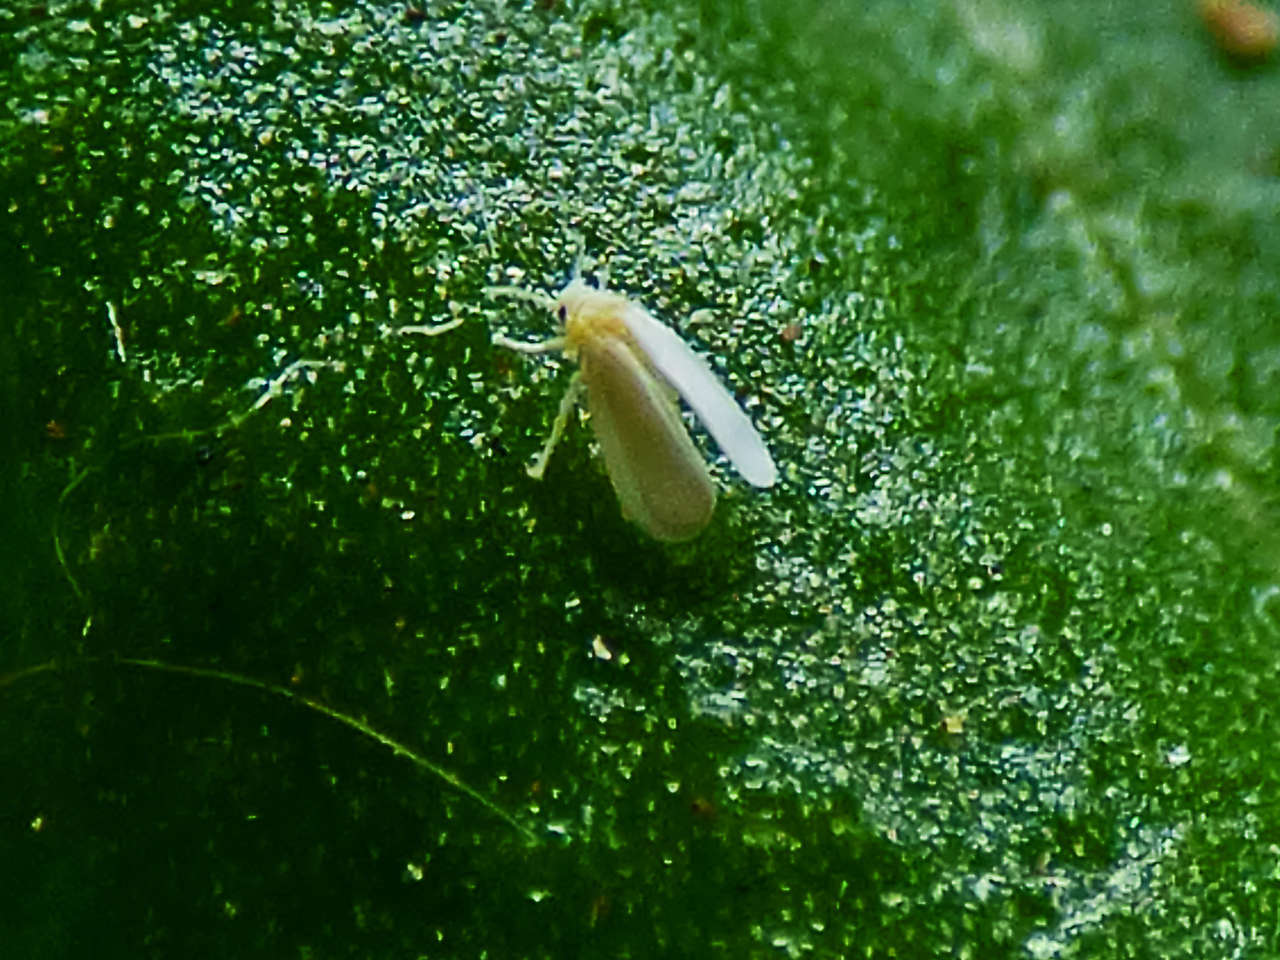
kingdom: Animalia
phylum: Arthropoda
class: Insecta
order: Hemiptera
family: Aleyrodidae
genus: Trialeurodes
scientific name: Trialeurodes vaporariorum
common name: Greenhouse white fly
